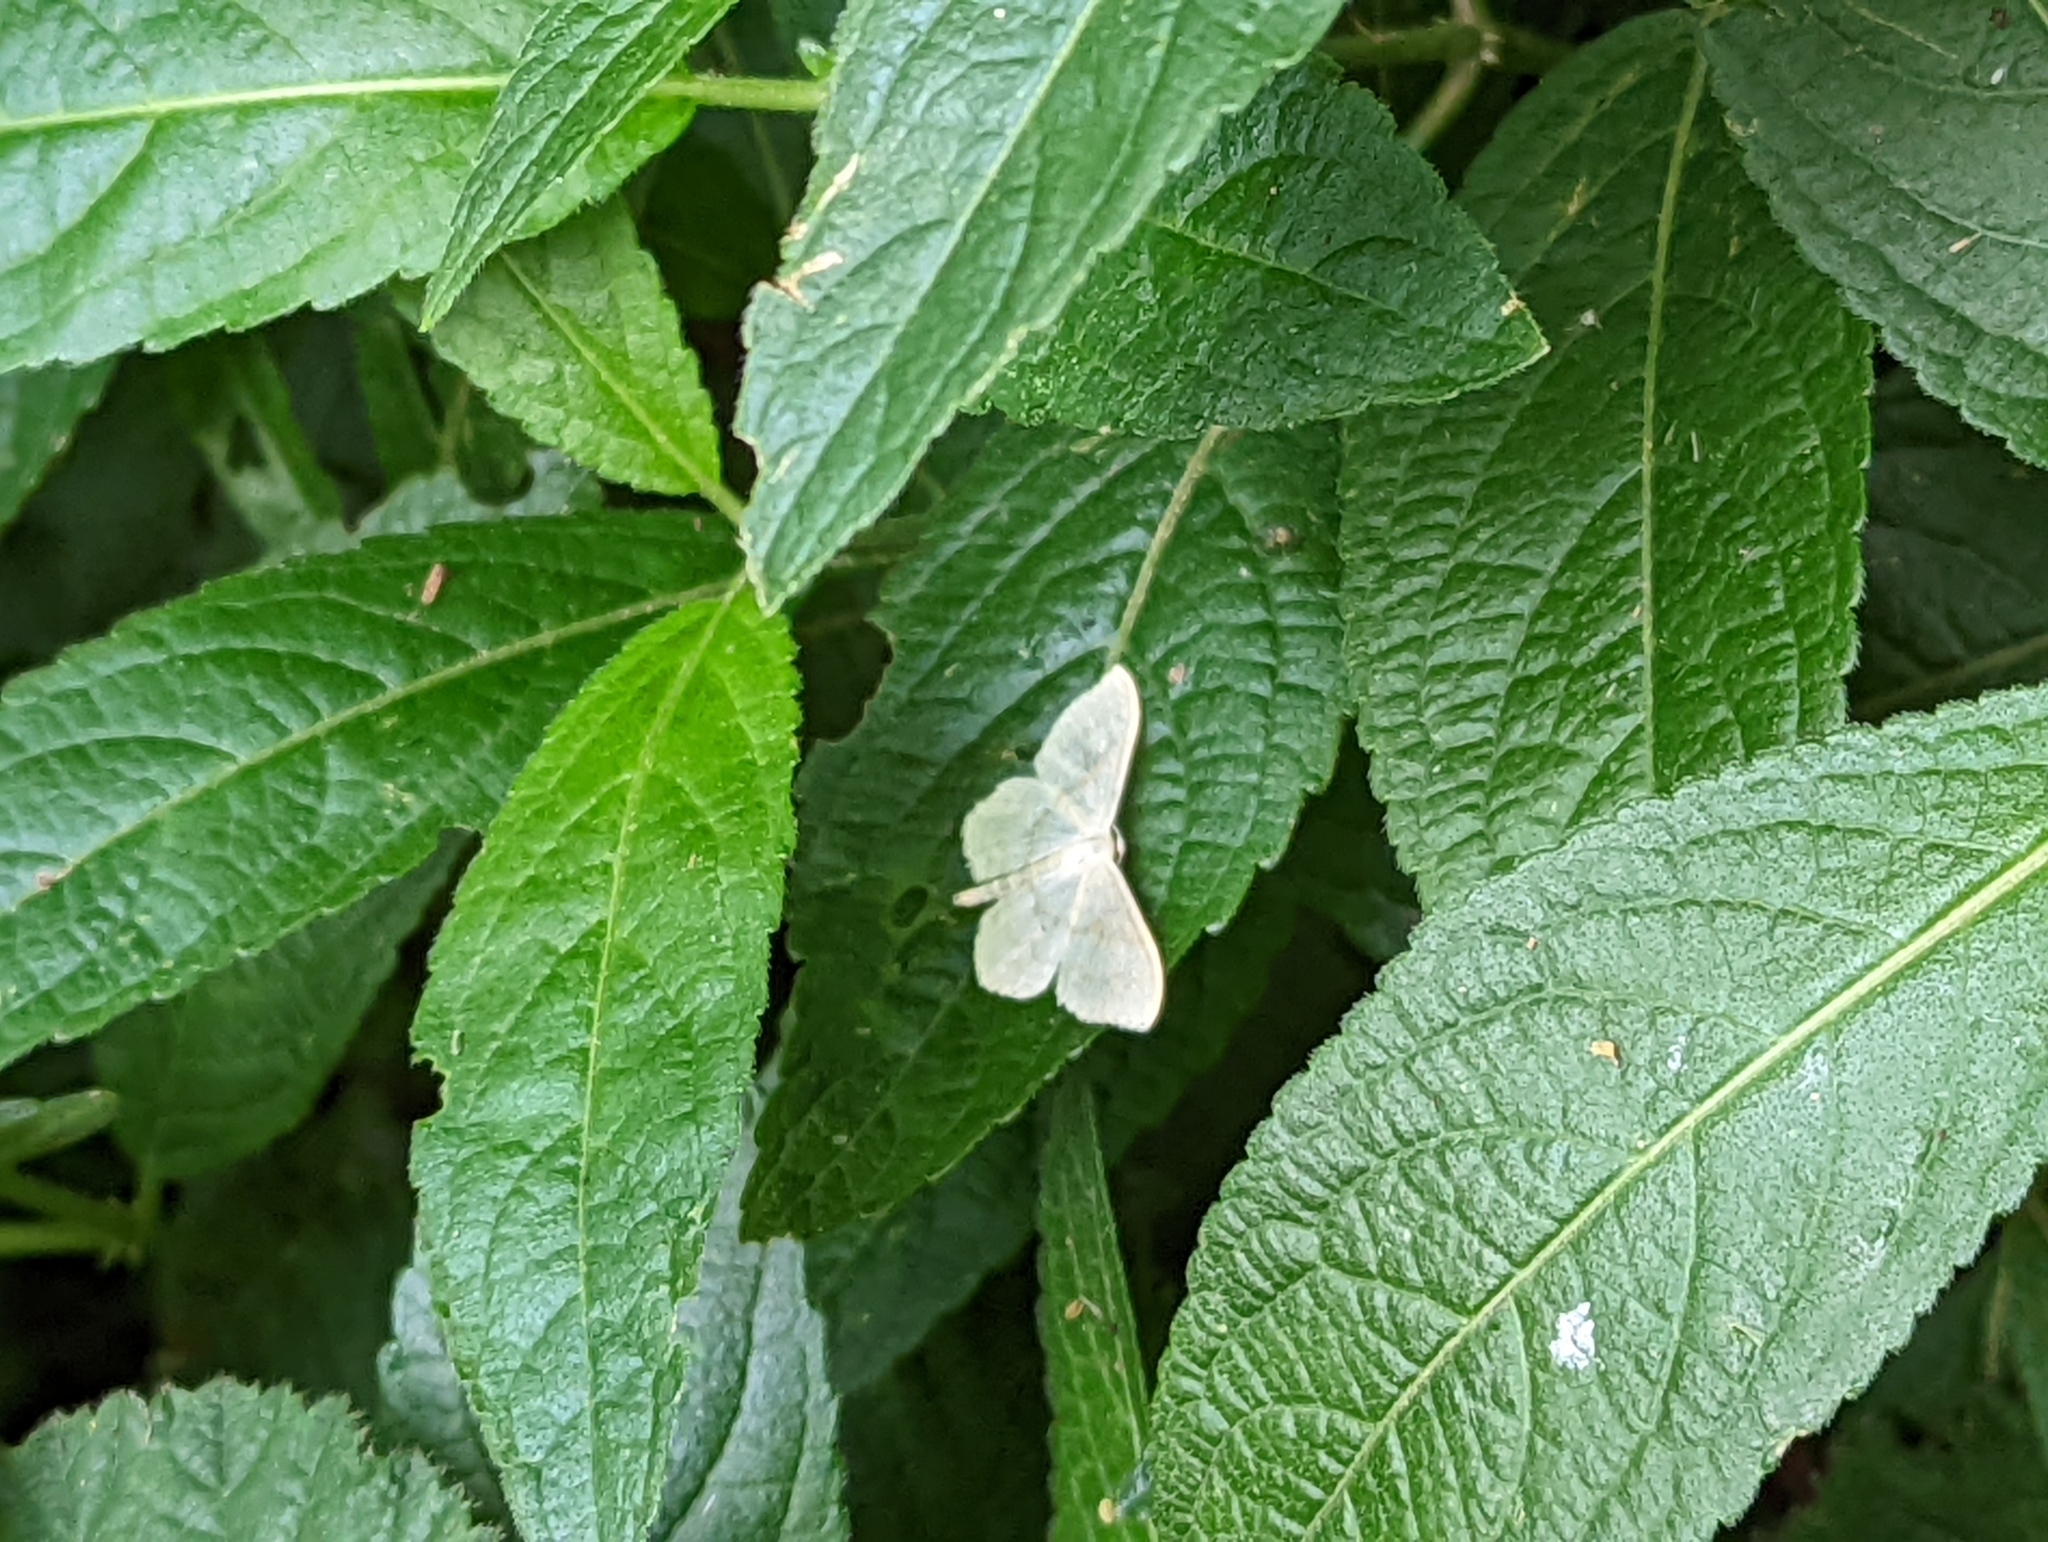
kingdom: Animalia
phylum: Arthropoda
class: Insecta
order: Lepidoptera
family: Geometridae
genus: Scopula
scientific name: Scopula floslactata
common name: Cream wave
